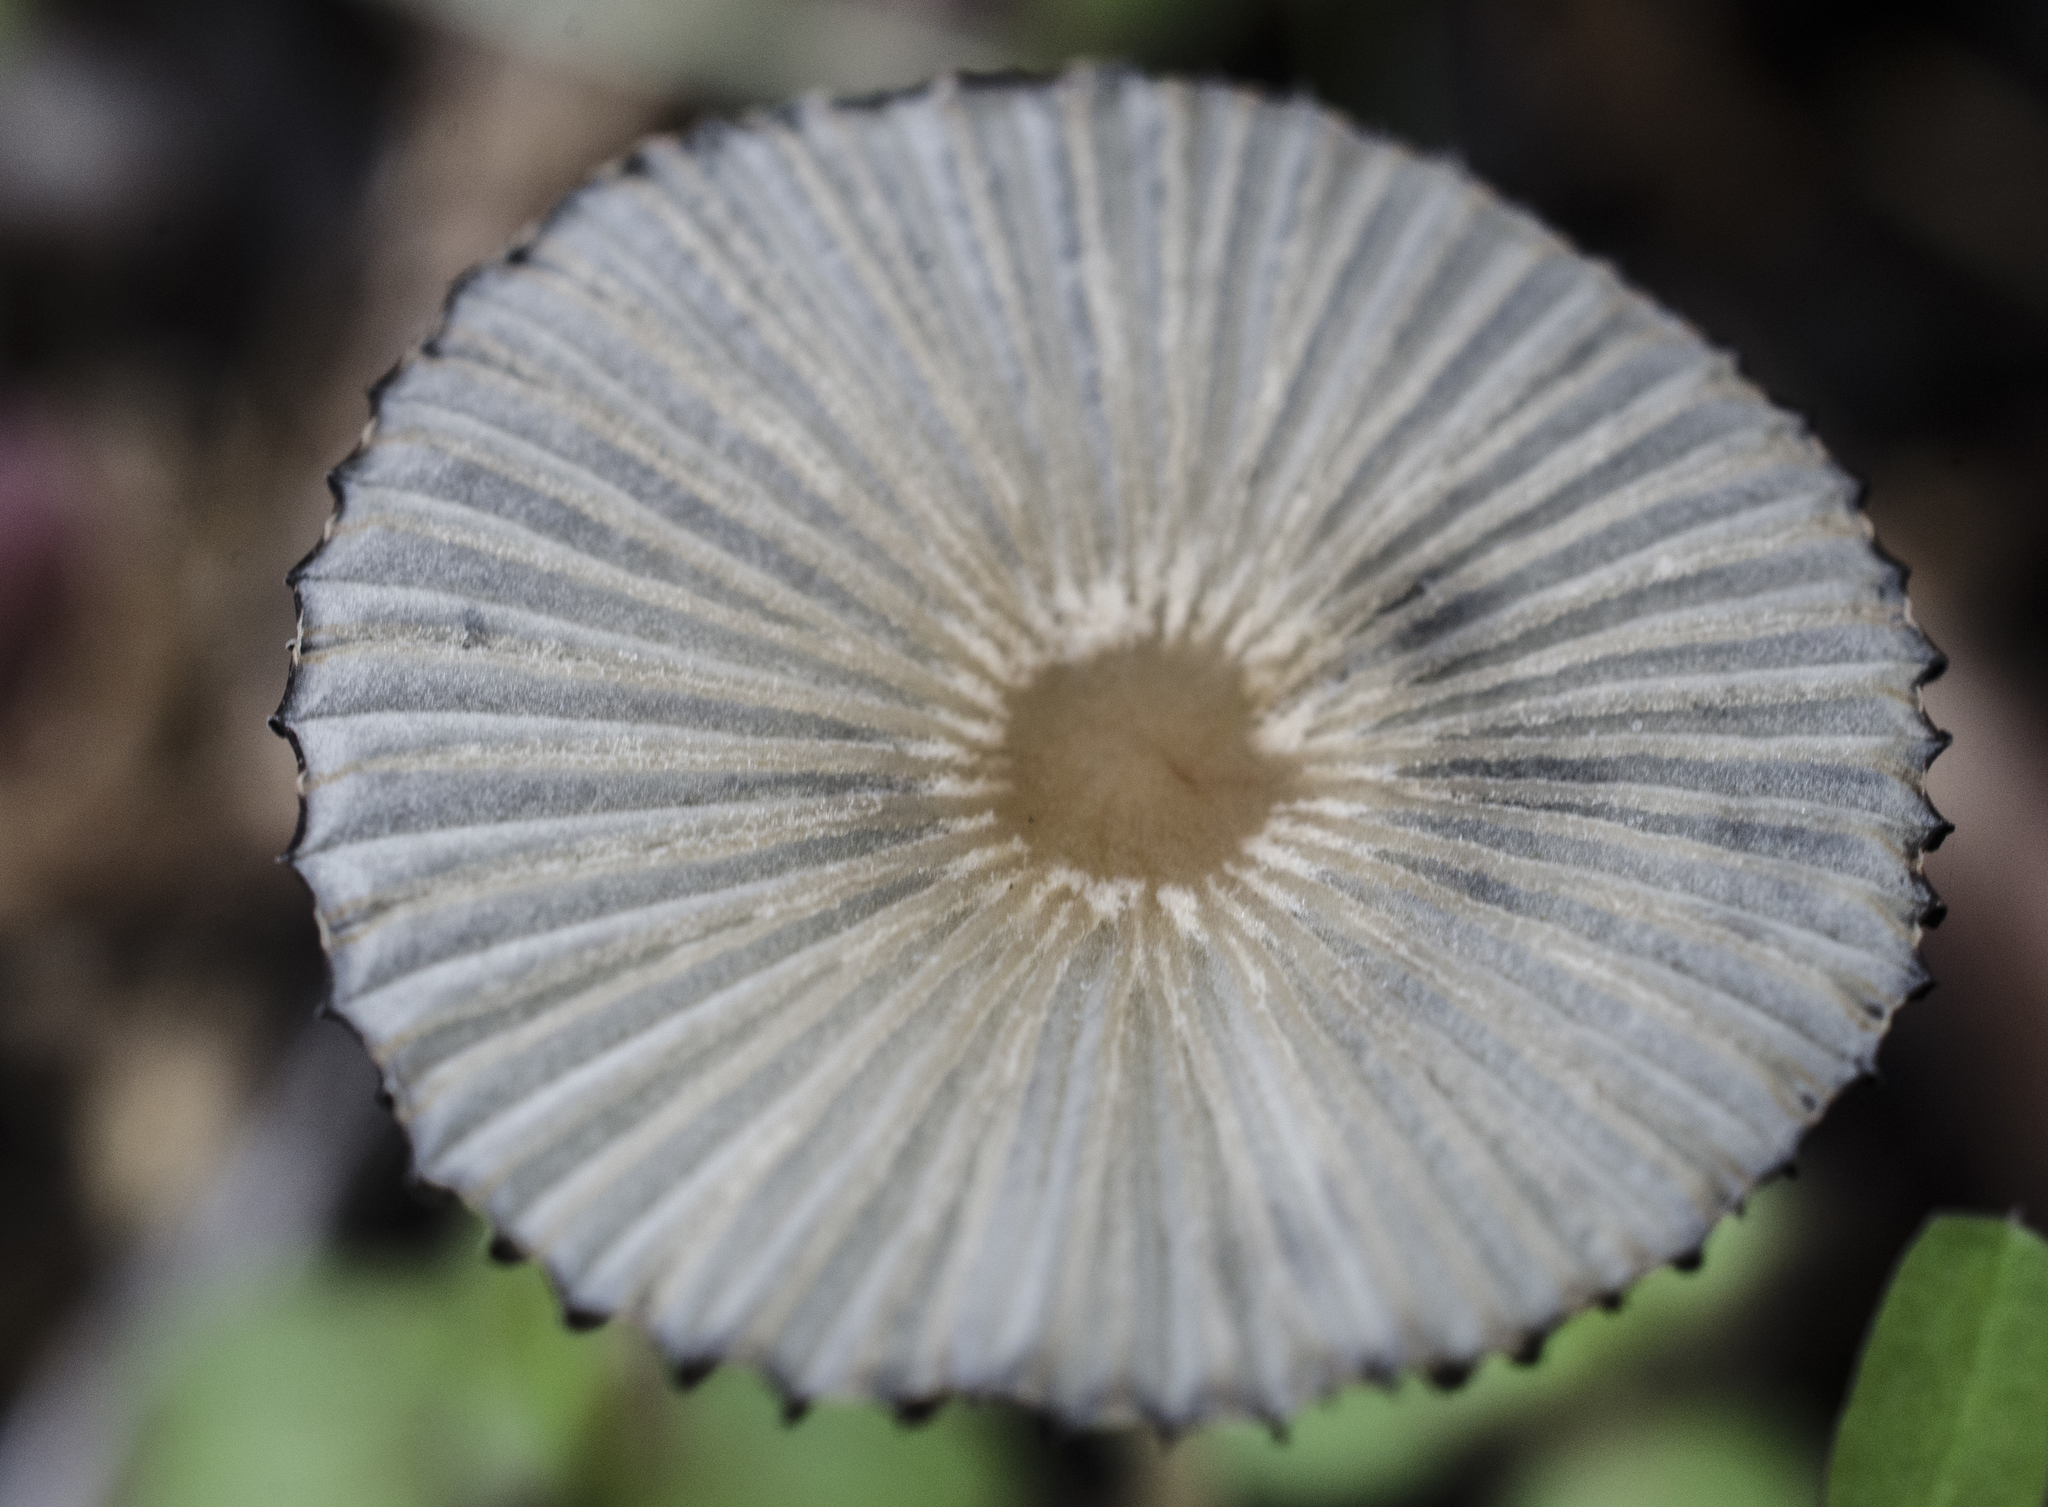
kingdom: Fungi
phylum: Basidiomycota
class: Agaricomycetes
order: Agaricales
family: Psathyrellaceae
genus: Parasola
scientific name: Parasola plicatilis
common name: Pleated inkcap
